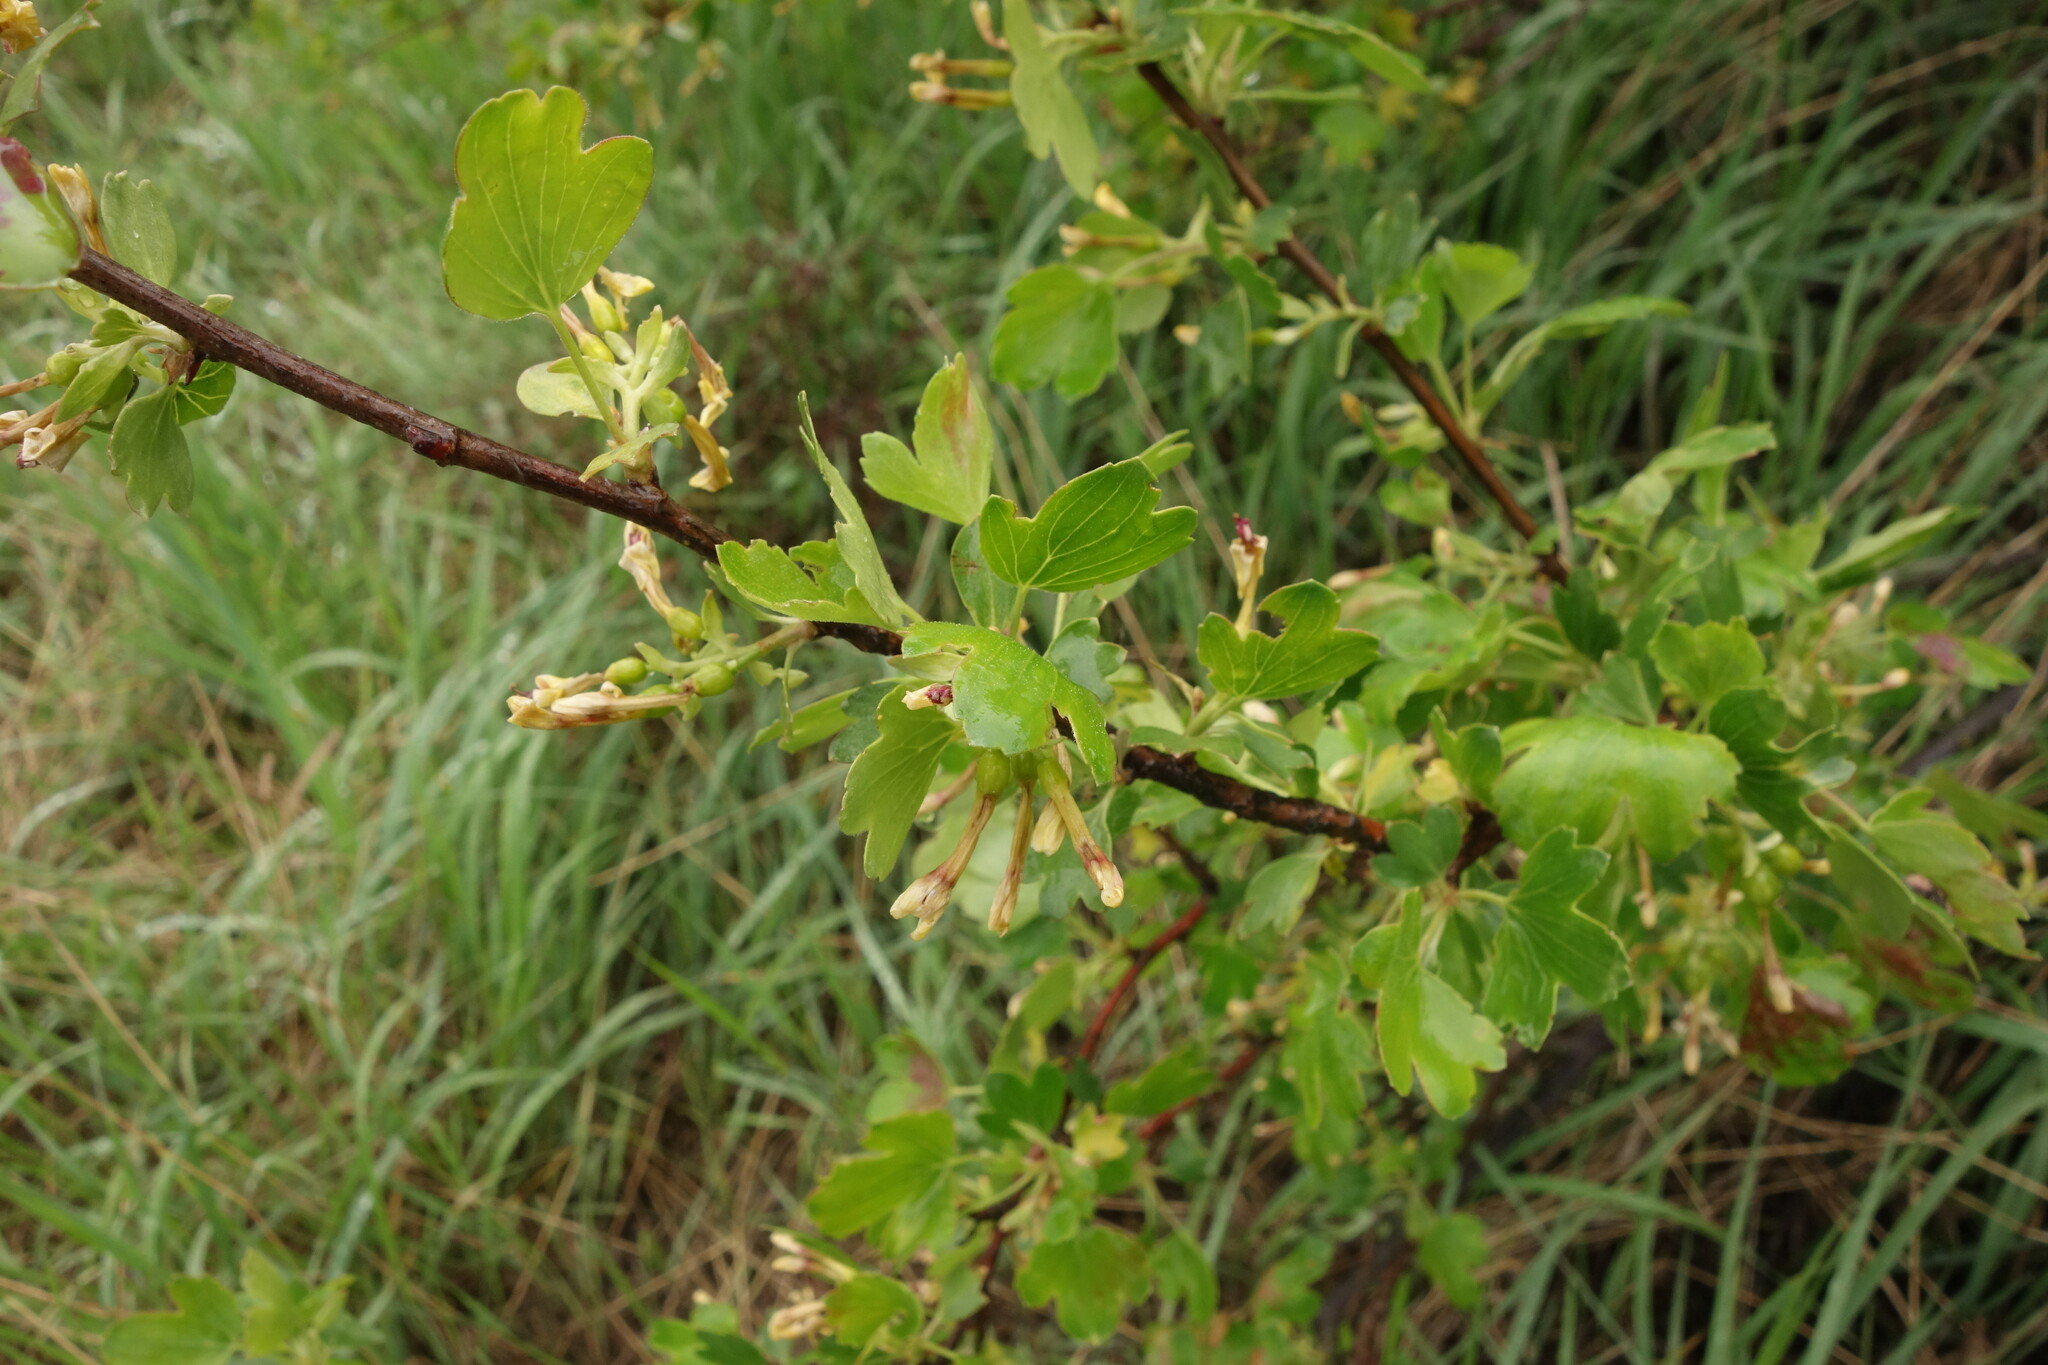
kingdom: Plantae
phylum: Tracheophyta
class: Magnoliopsida
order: Saxifragales
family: Grossulariaceae
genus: Ribes
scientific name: Ribes aureum
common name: Golden currant
